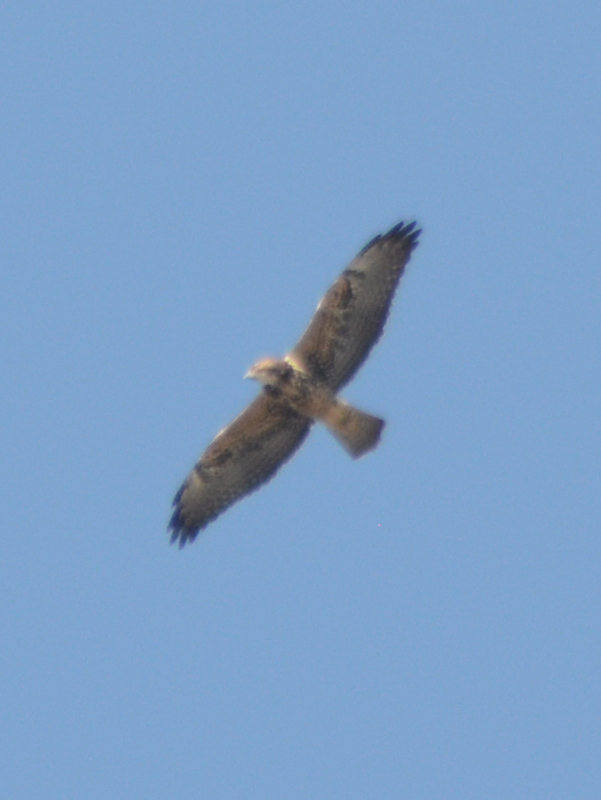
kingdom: Animalia
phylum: Chordata
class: Aves
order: Accipitriformes
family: Accipitridae
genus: Buteo
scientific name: Buteo swainsoni
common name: Swainson's hawk
